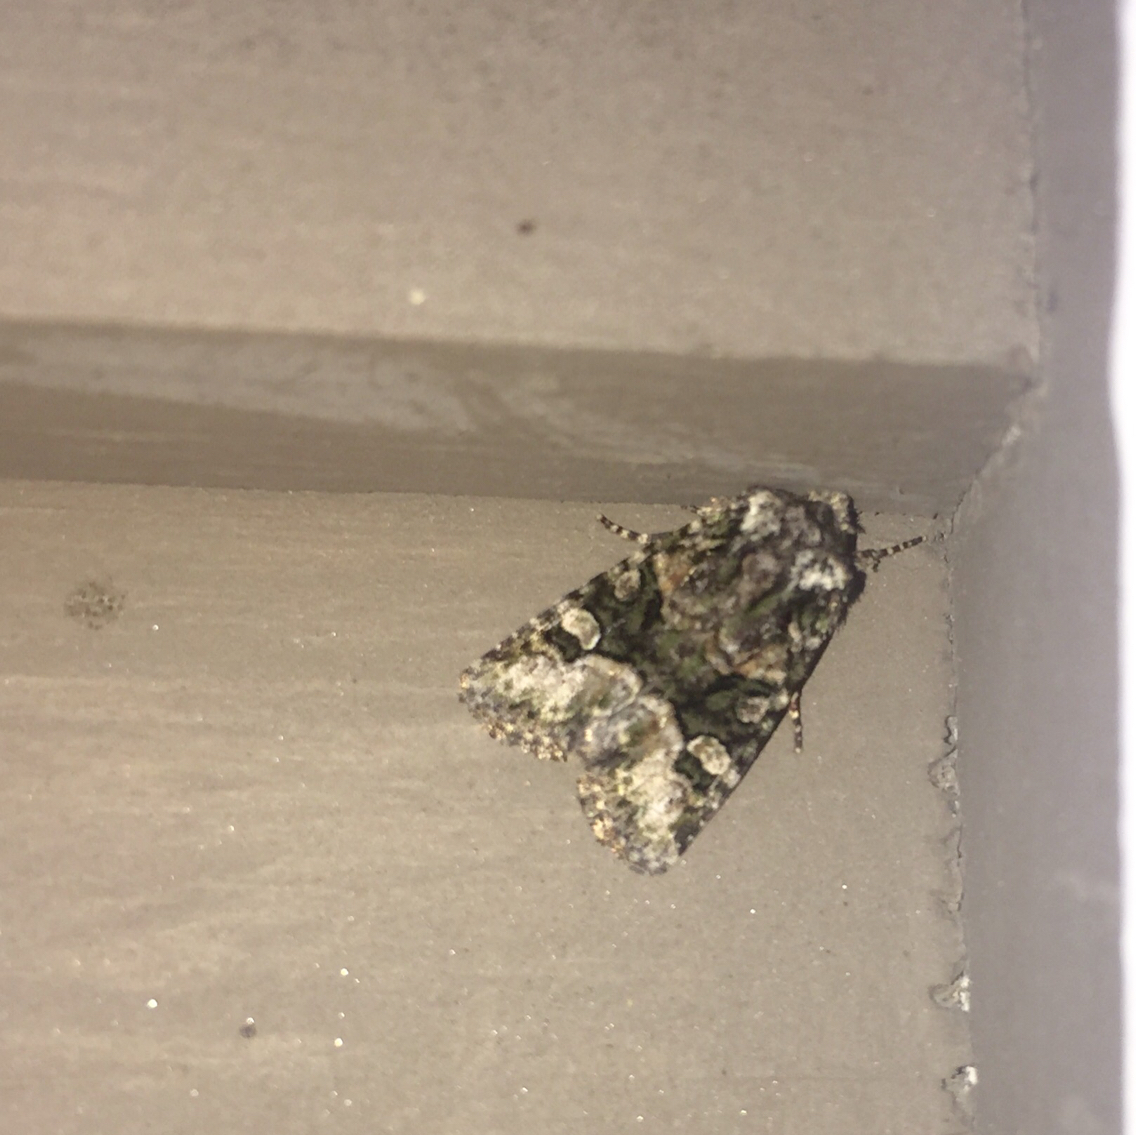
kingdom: Animalia
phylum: Arthropoda
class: Insecta
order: Lepidoptera
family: Noctuidae
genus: Lacinipolia
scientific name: Lacinipolia olivacea
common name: Olive arches moth
